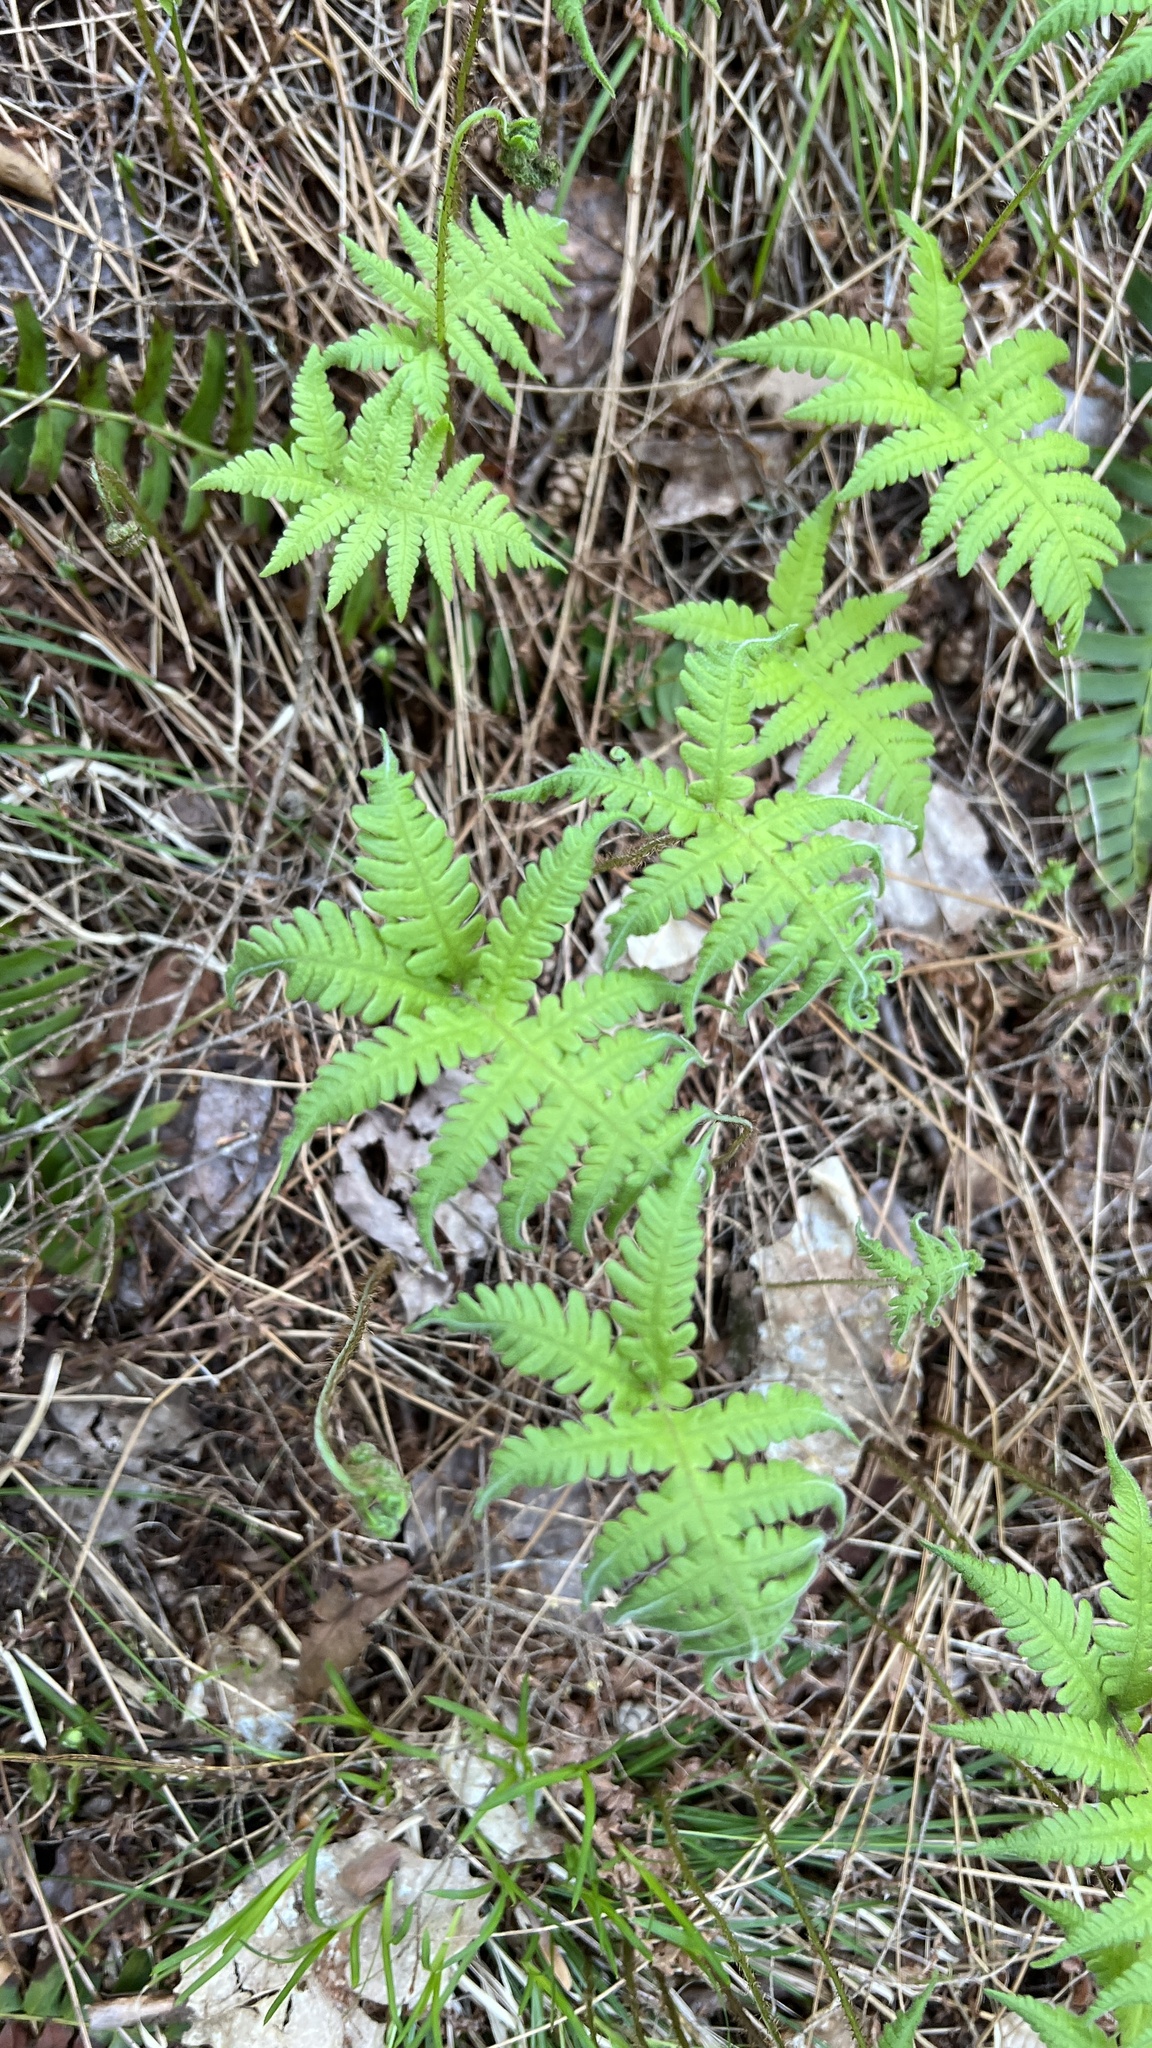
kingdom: Plantae
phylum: Tracheophyta
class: Polypodiopsida
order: Polypodiales
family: Thelypteridaceae
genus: Phegopteris
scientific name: Phegopteris connectilis
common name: Beech fern
